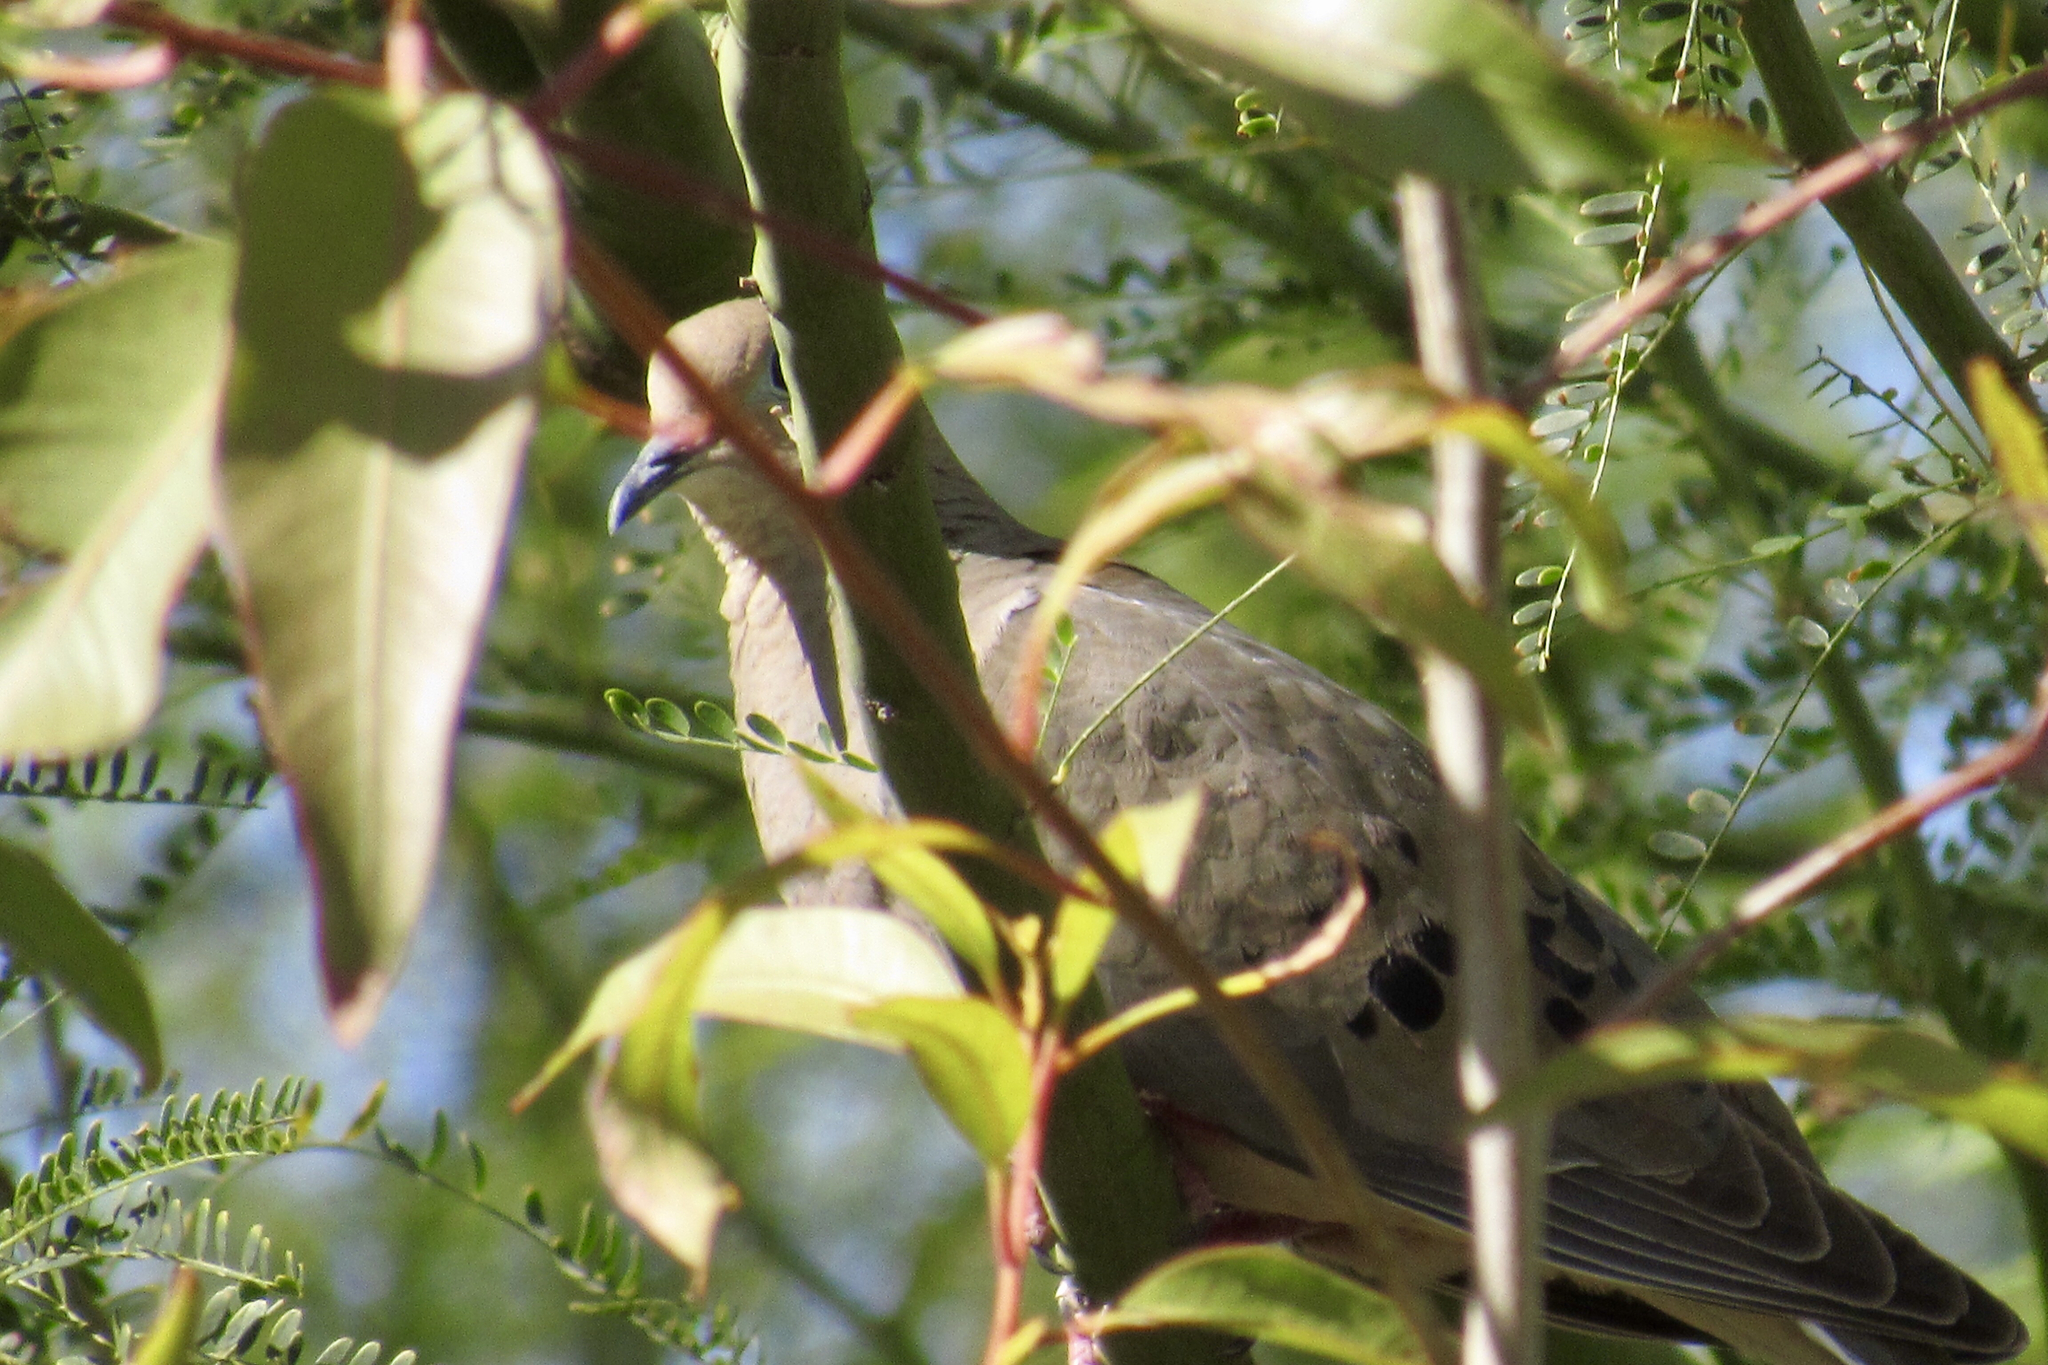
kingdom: Animalia
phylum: Chordata
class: Aves
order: Columbiformes
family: Columbidae
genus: Zenaida
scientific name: Zenaida macroura
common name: Mourning dove
